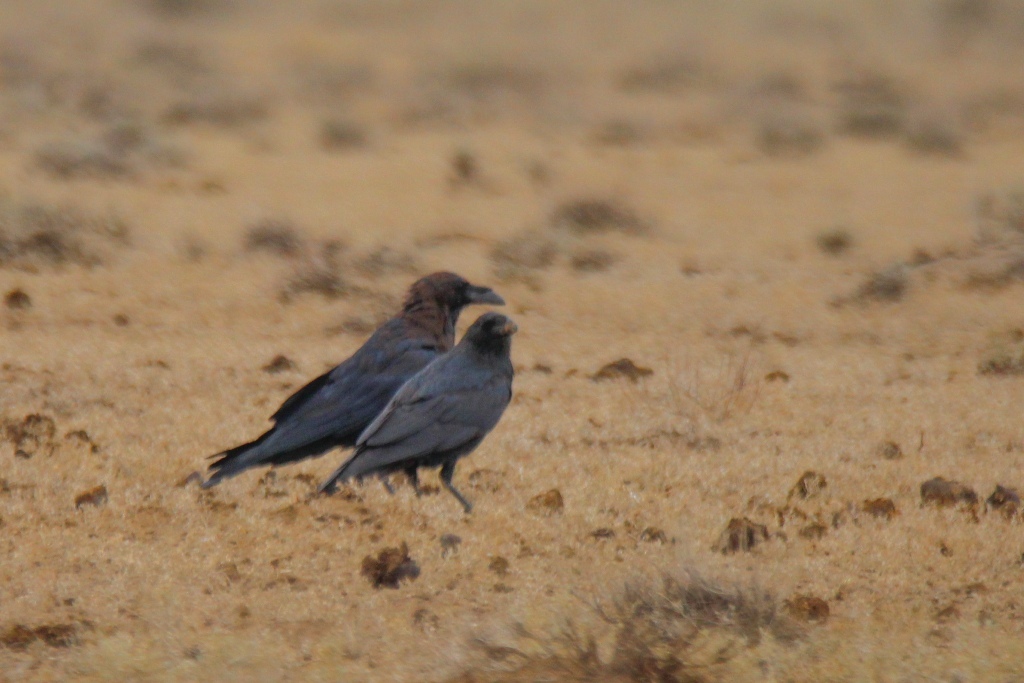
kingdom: Animalia
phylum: Chordata
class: Aves
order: Passeriformes
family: Corvidae
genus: Corvus
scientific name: Corvus ruficollis
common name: Brown-necked raven
